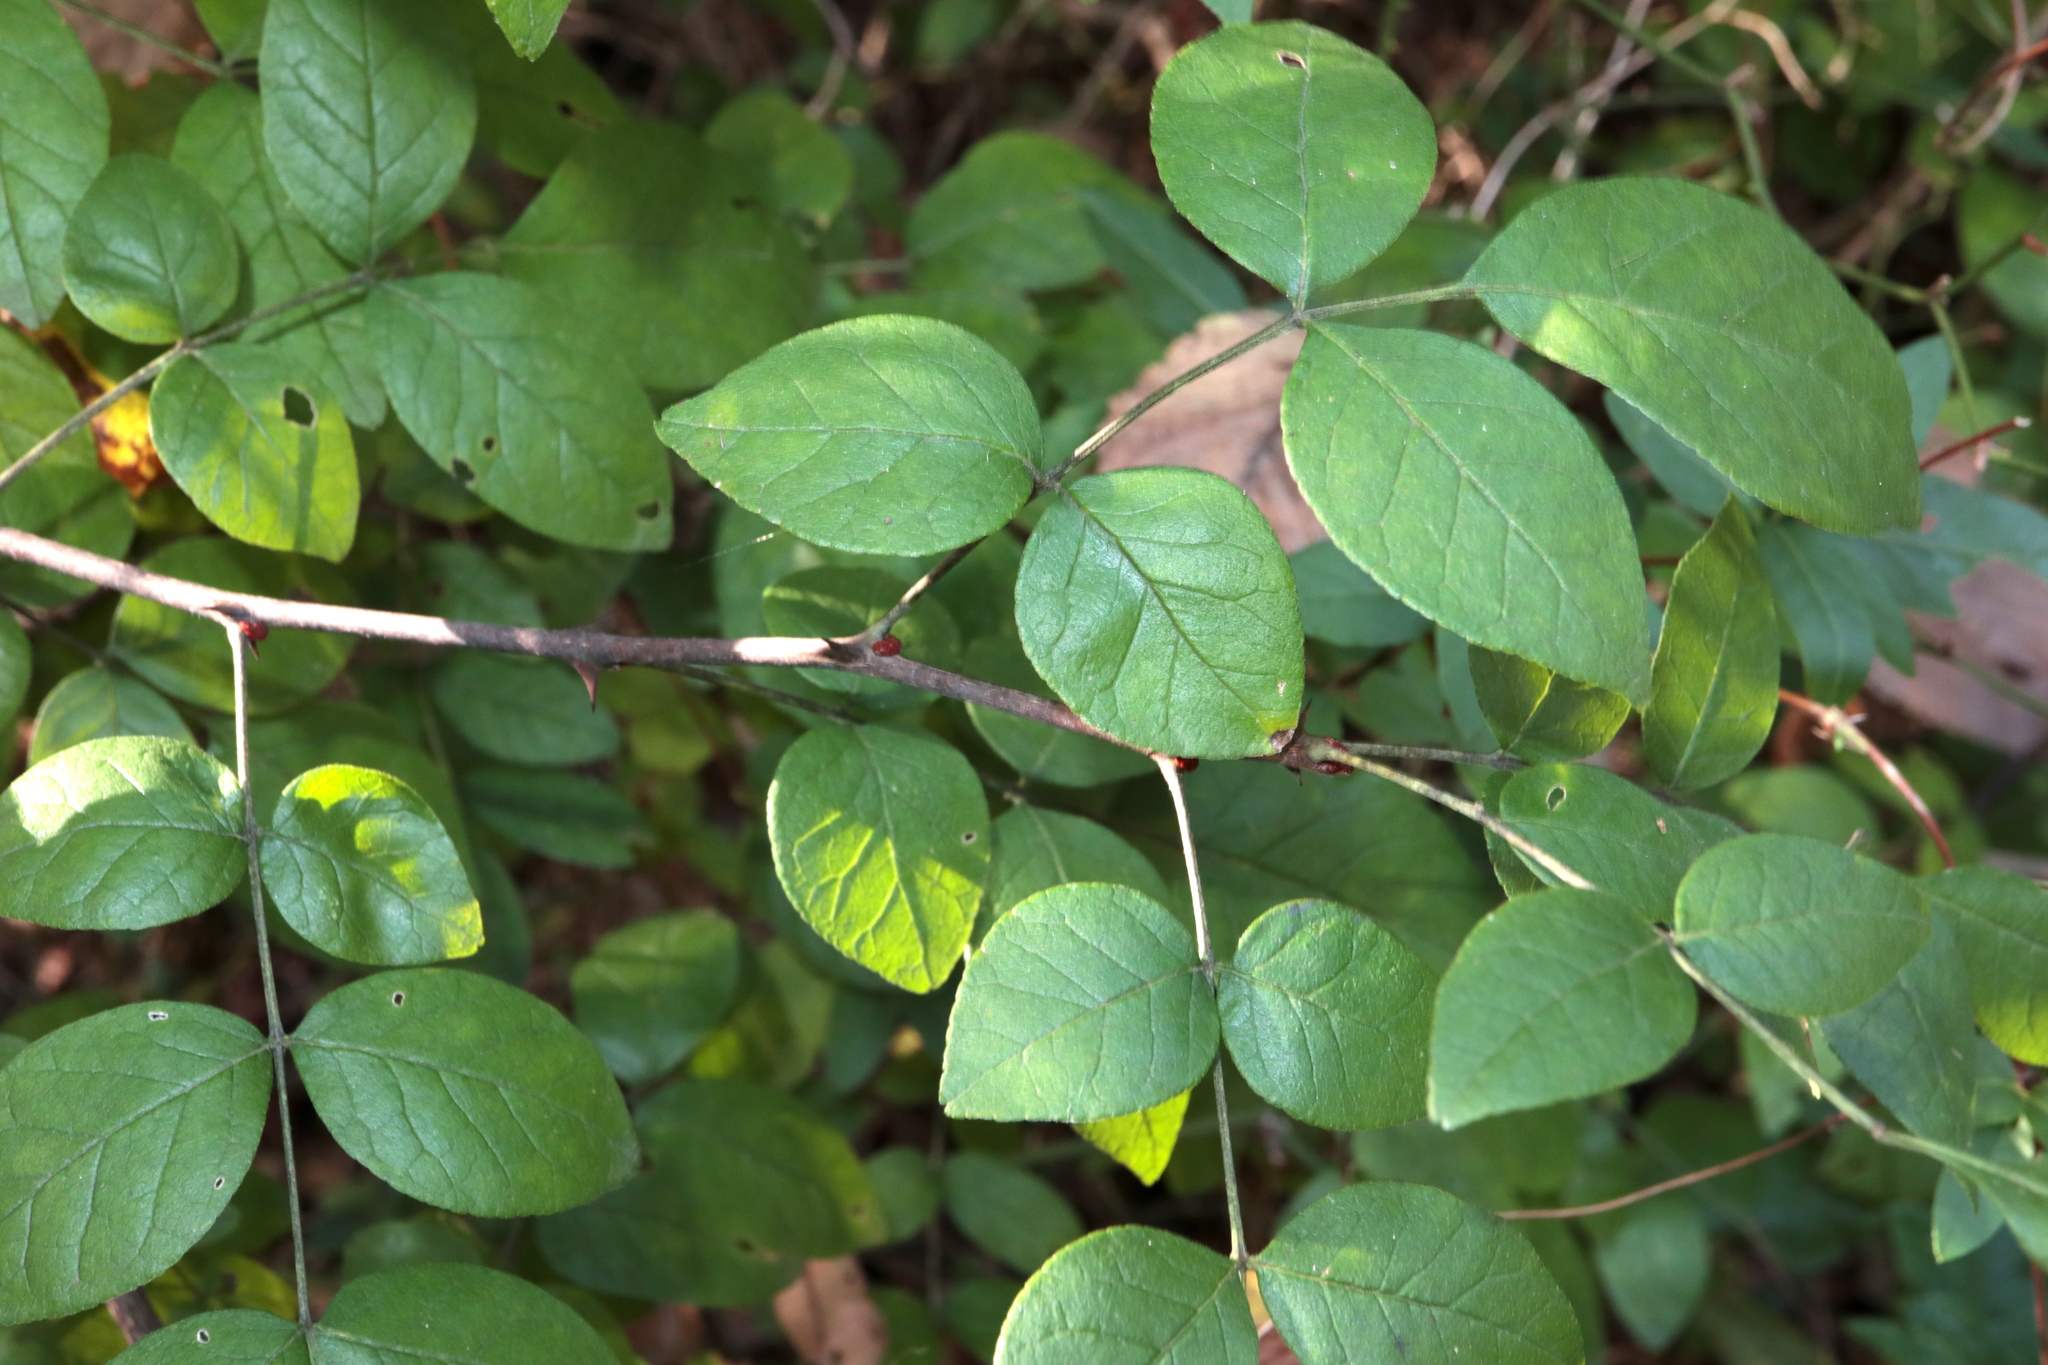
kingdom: Plantae
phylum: Tracheophyta
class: Magnoliopsida
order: Sapindales
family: Rutaceae
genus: Zanthoxylum
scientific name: Zanthoxylum americanum
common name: Northern prickly-ash
